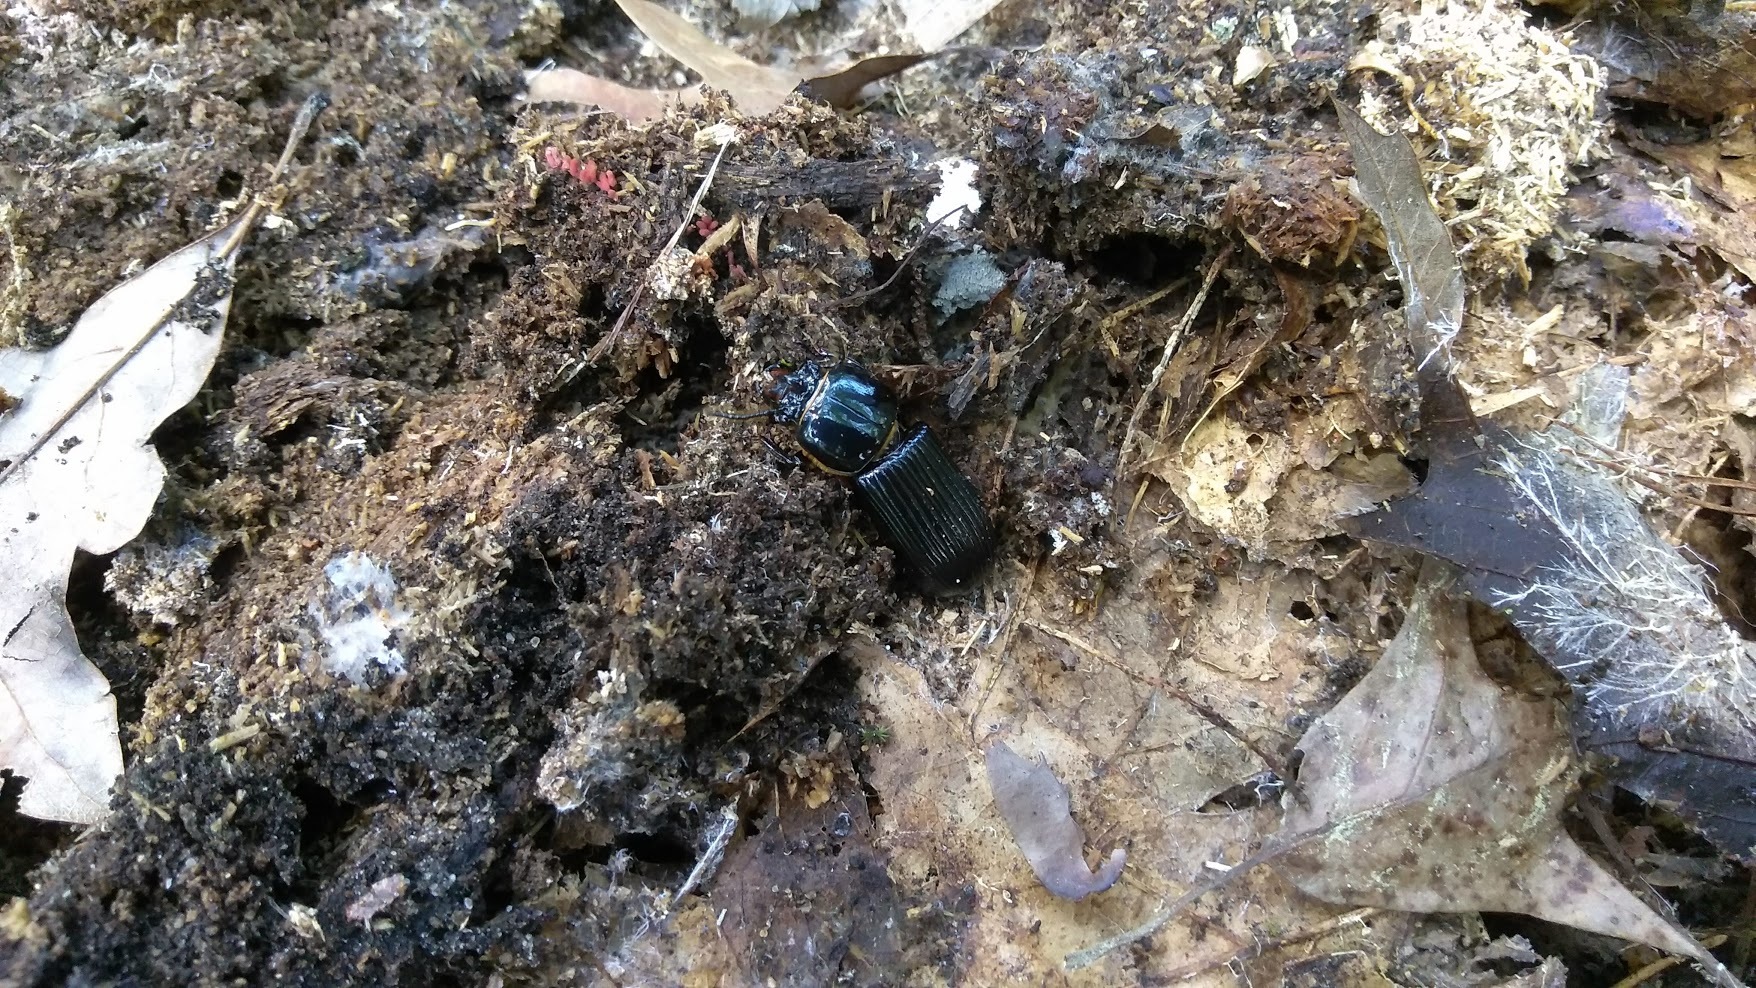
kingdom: Animalia
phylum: Arthropoda
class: Insecta
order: Coleoptera
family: Passalidae
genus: Odontotaenius
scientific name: Odontotaenius disjunctus
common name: Patent leather beetle
